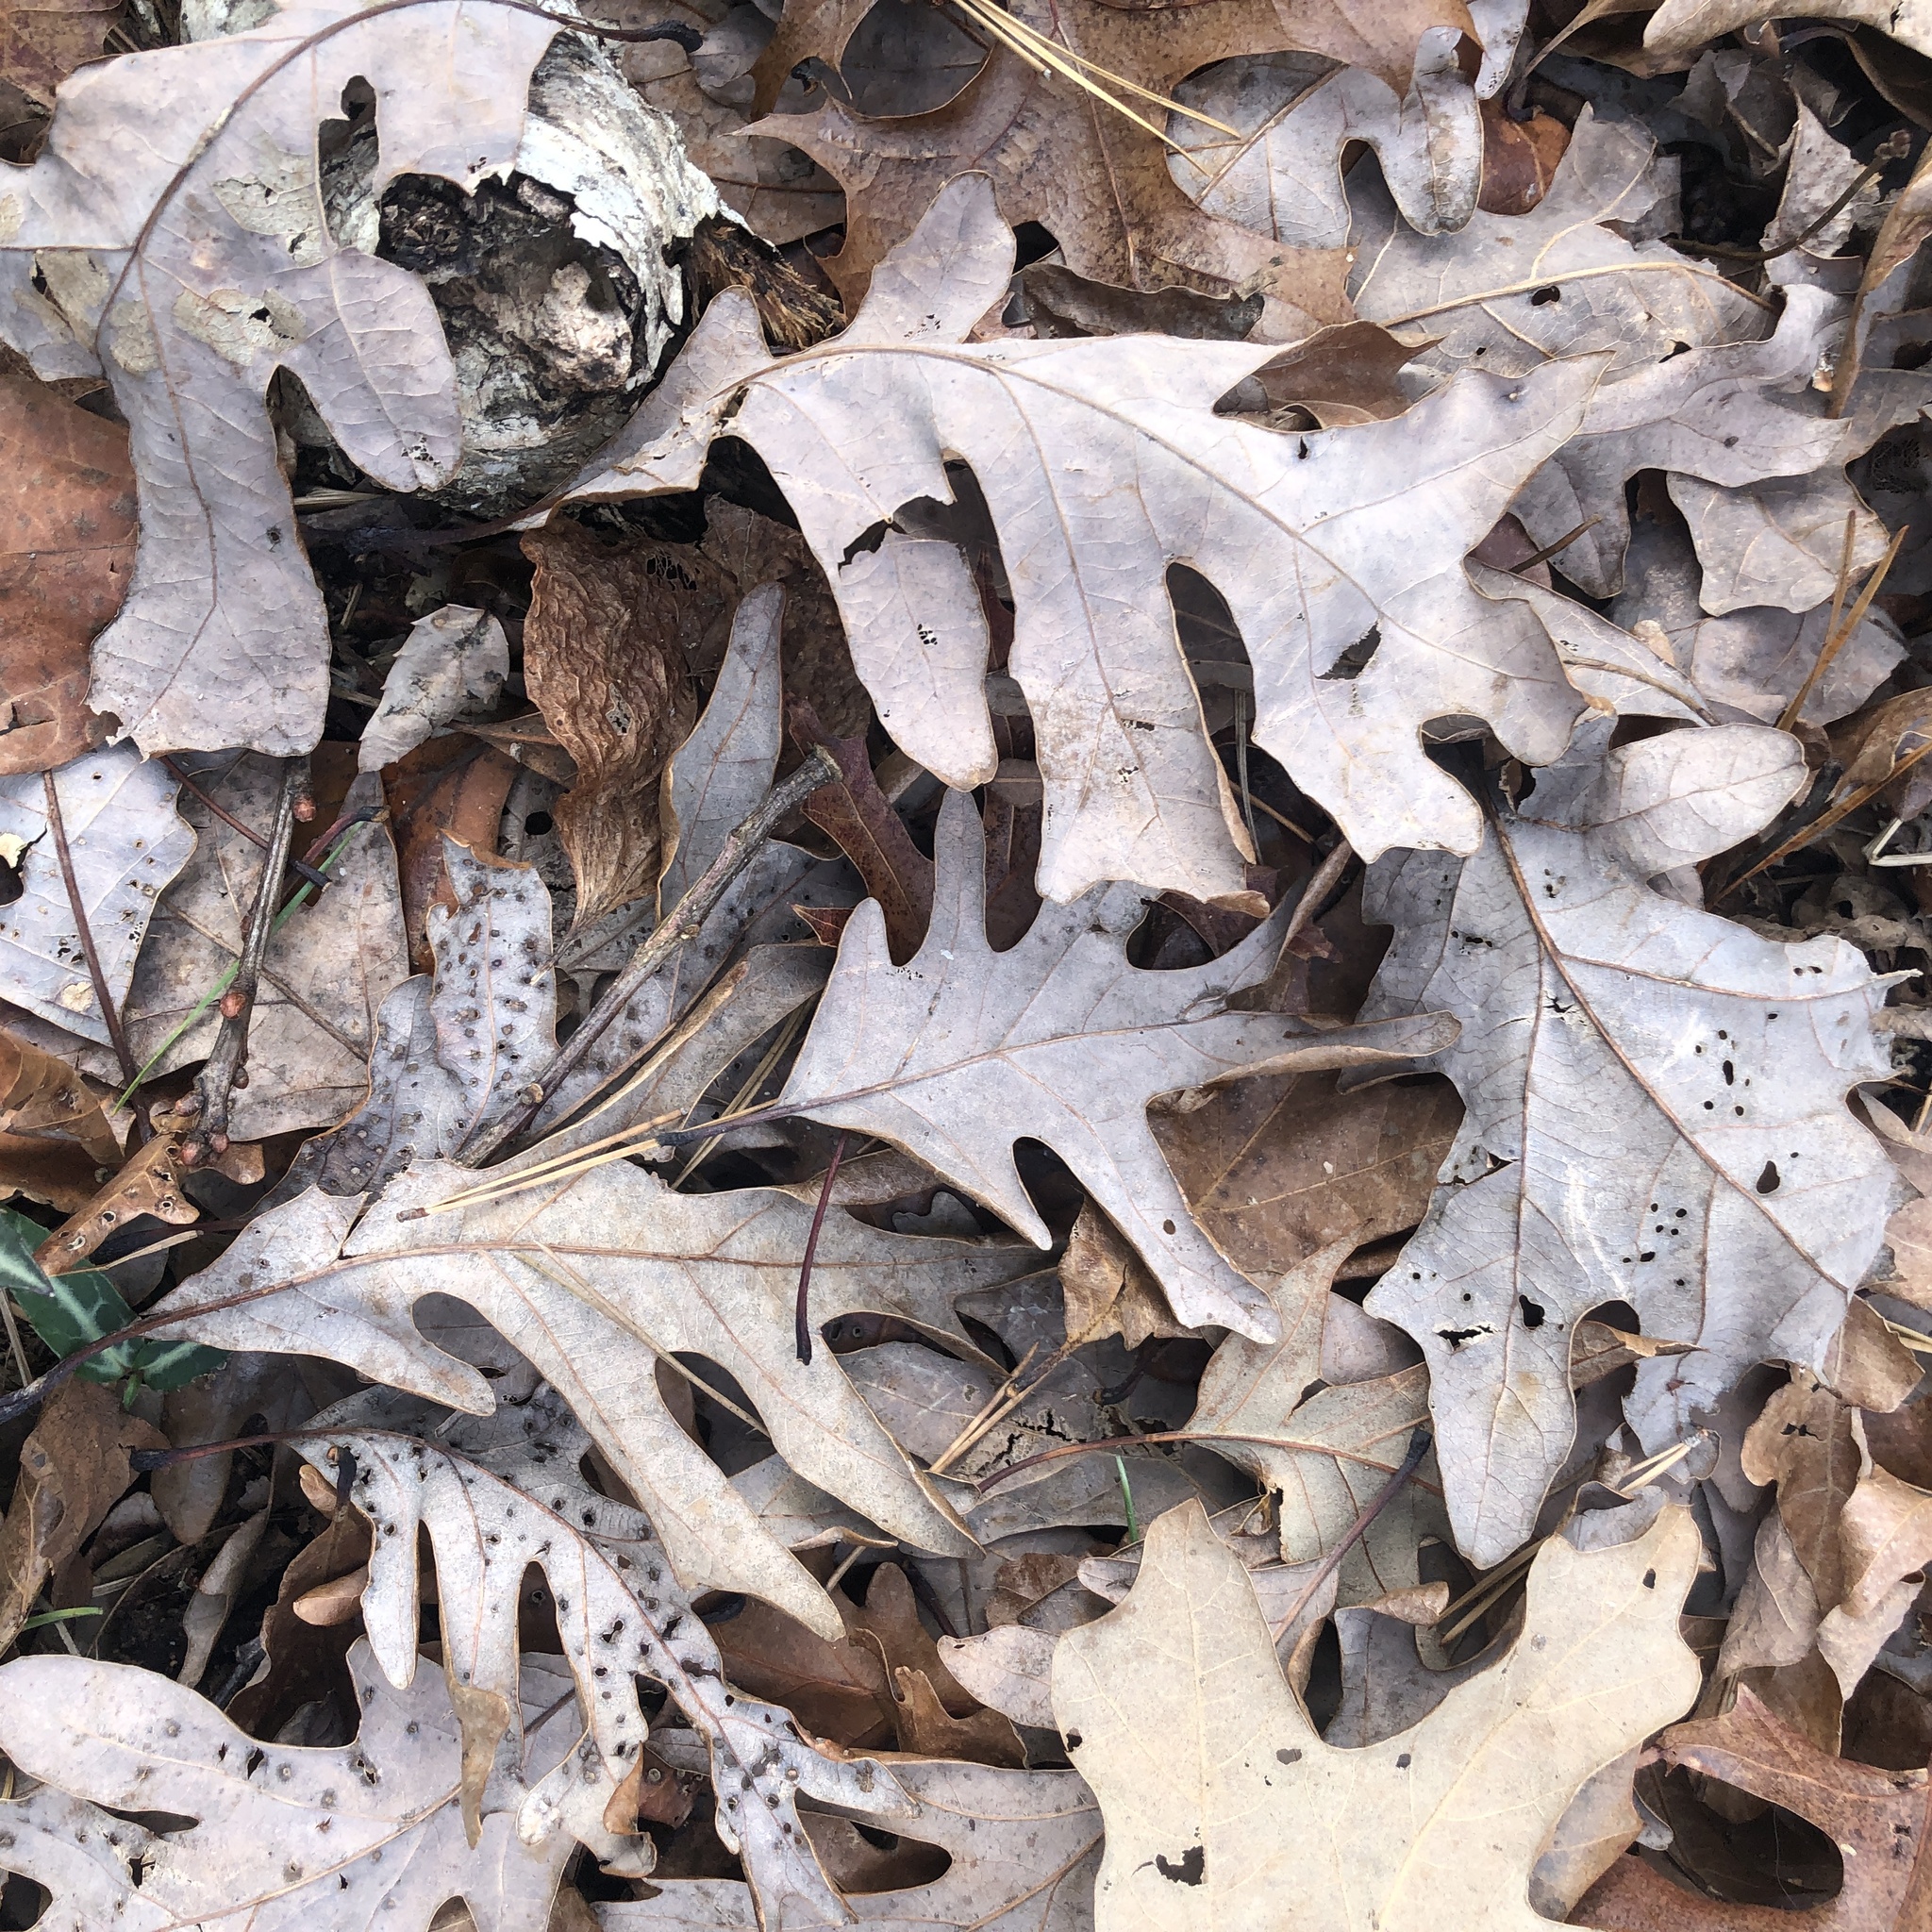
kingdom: Plantae
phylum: Tracheophyta
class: Magnoliopsida
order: Fagales
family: Fagaceae
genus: Quercus
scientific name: Quercus alba
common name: White oak
